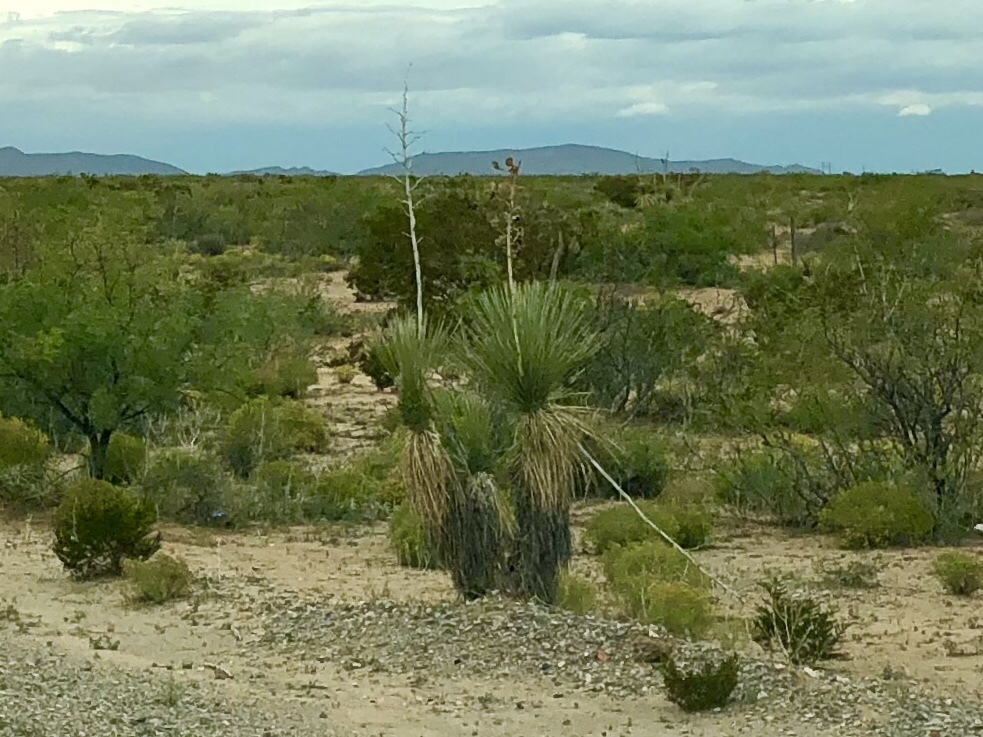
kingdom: Plantae
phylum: Tracheophyta
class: Liliopsida
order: Asparagales
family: Asparagaceae
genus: Yucca
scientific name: Yucca elata
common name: Palmella
